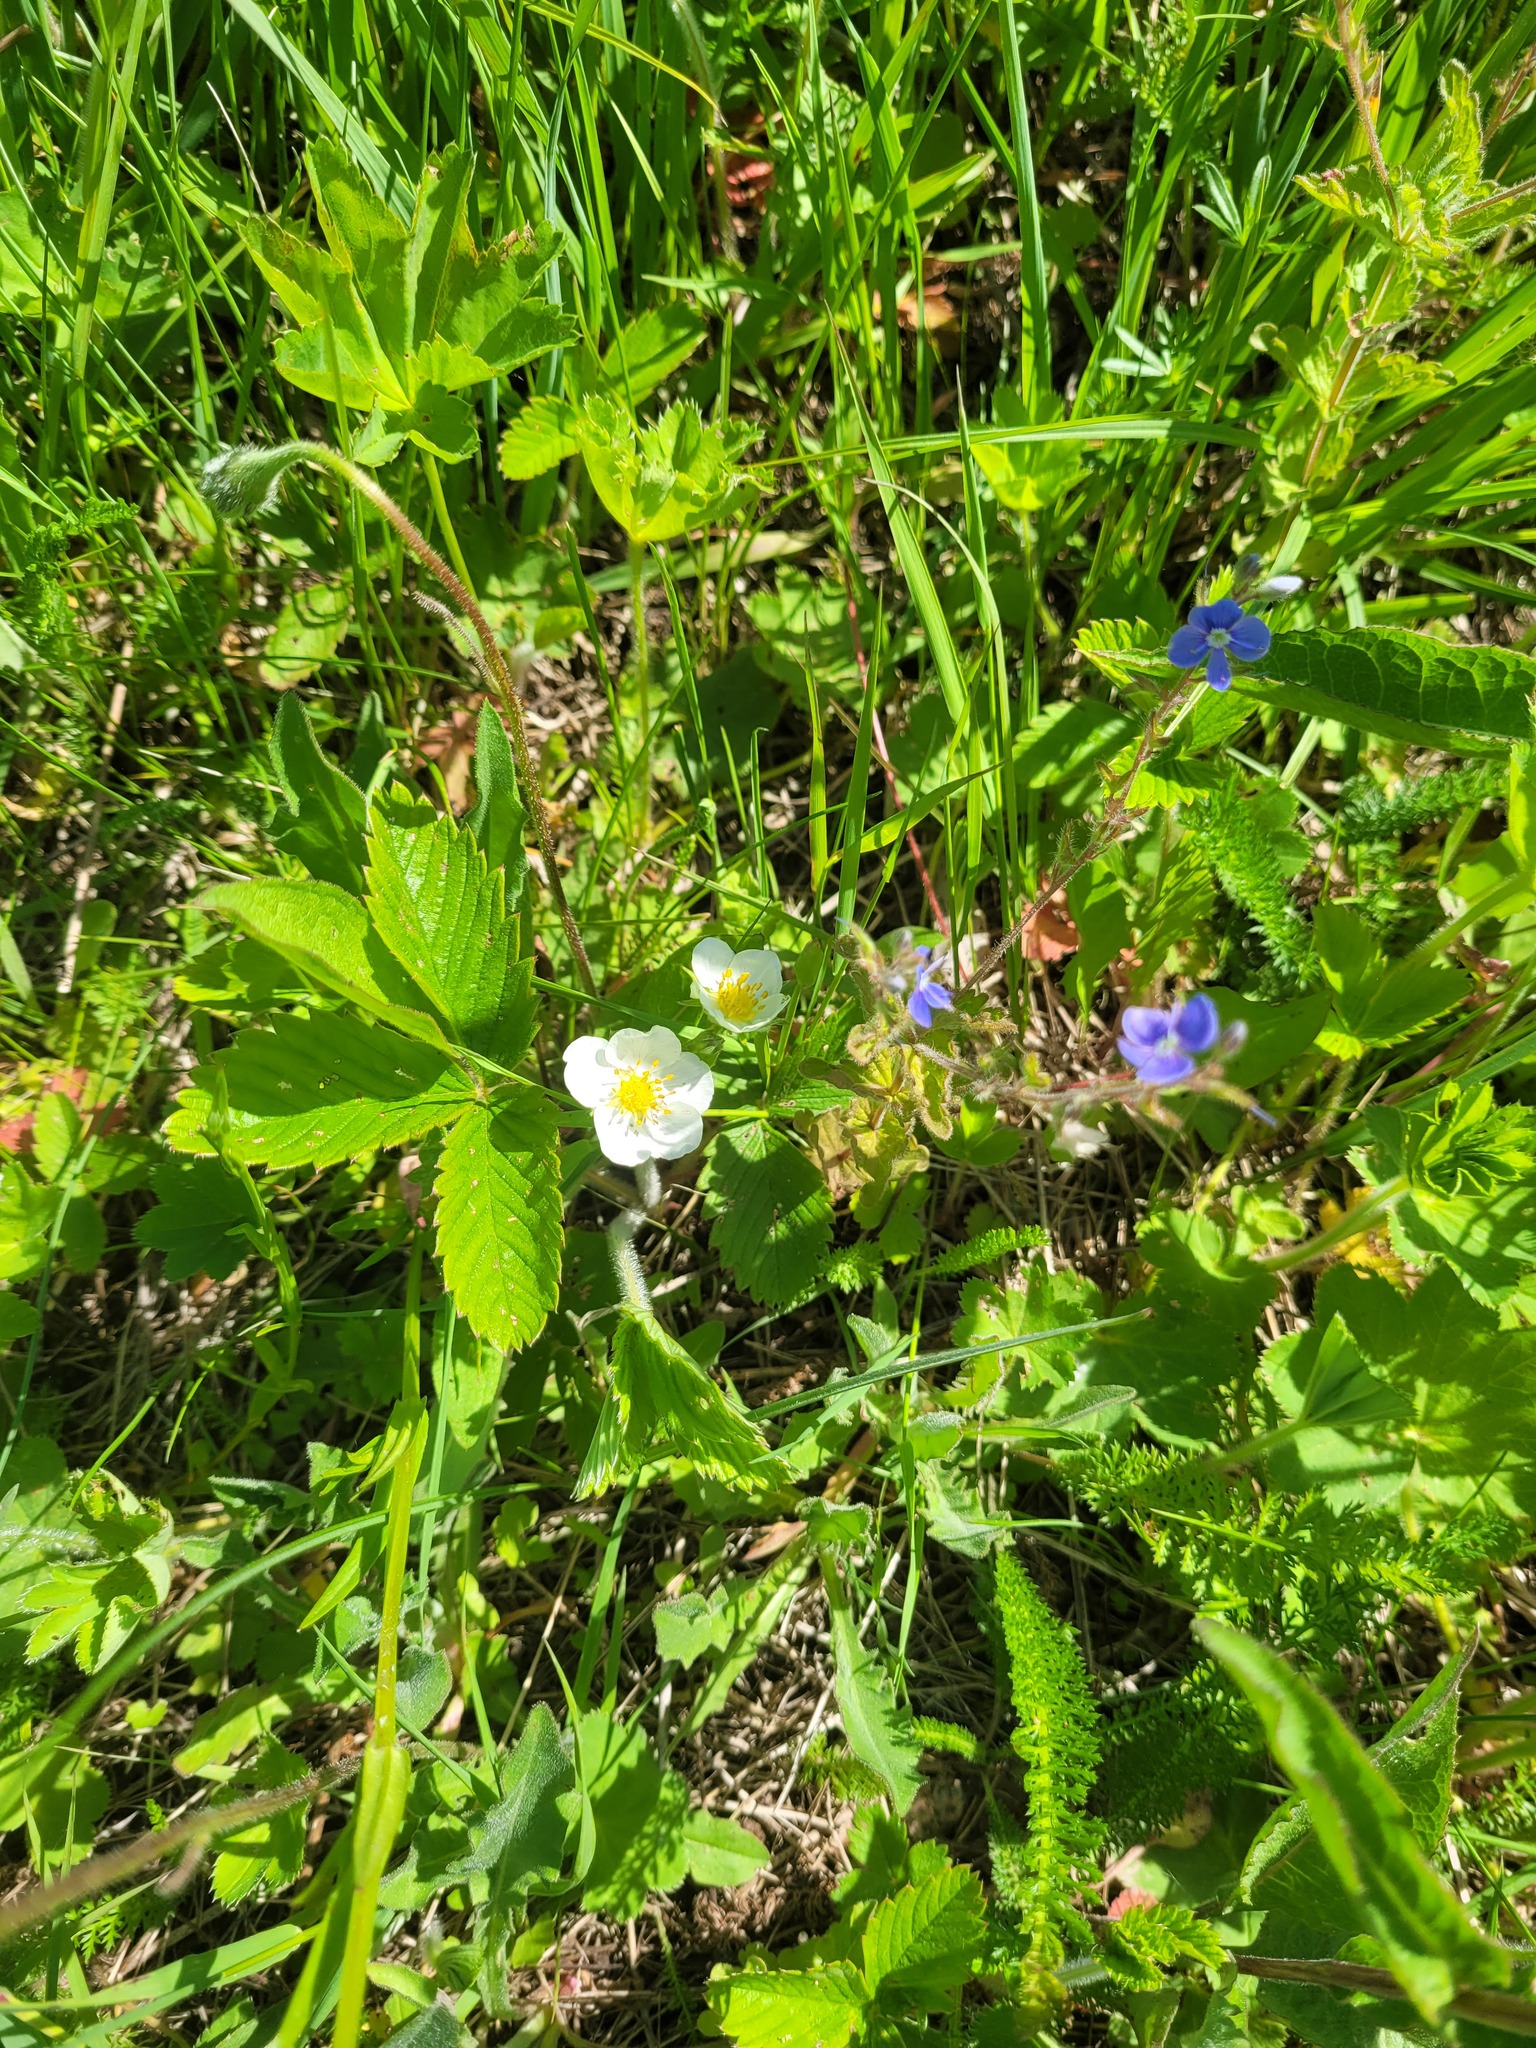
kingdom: Plantae
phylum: Tracheophyta
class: Magnoliopsida
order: Rosales
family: Rosaceae
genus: Fragaria
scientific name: Fragaria viridis
